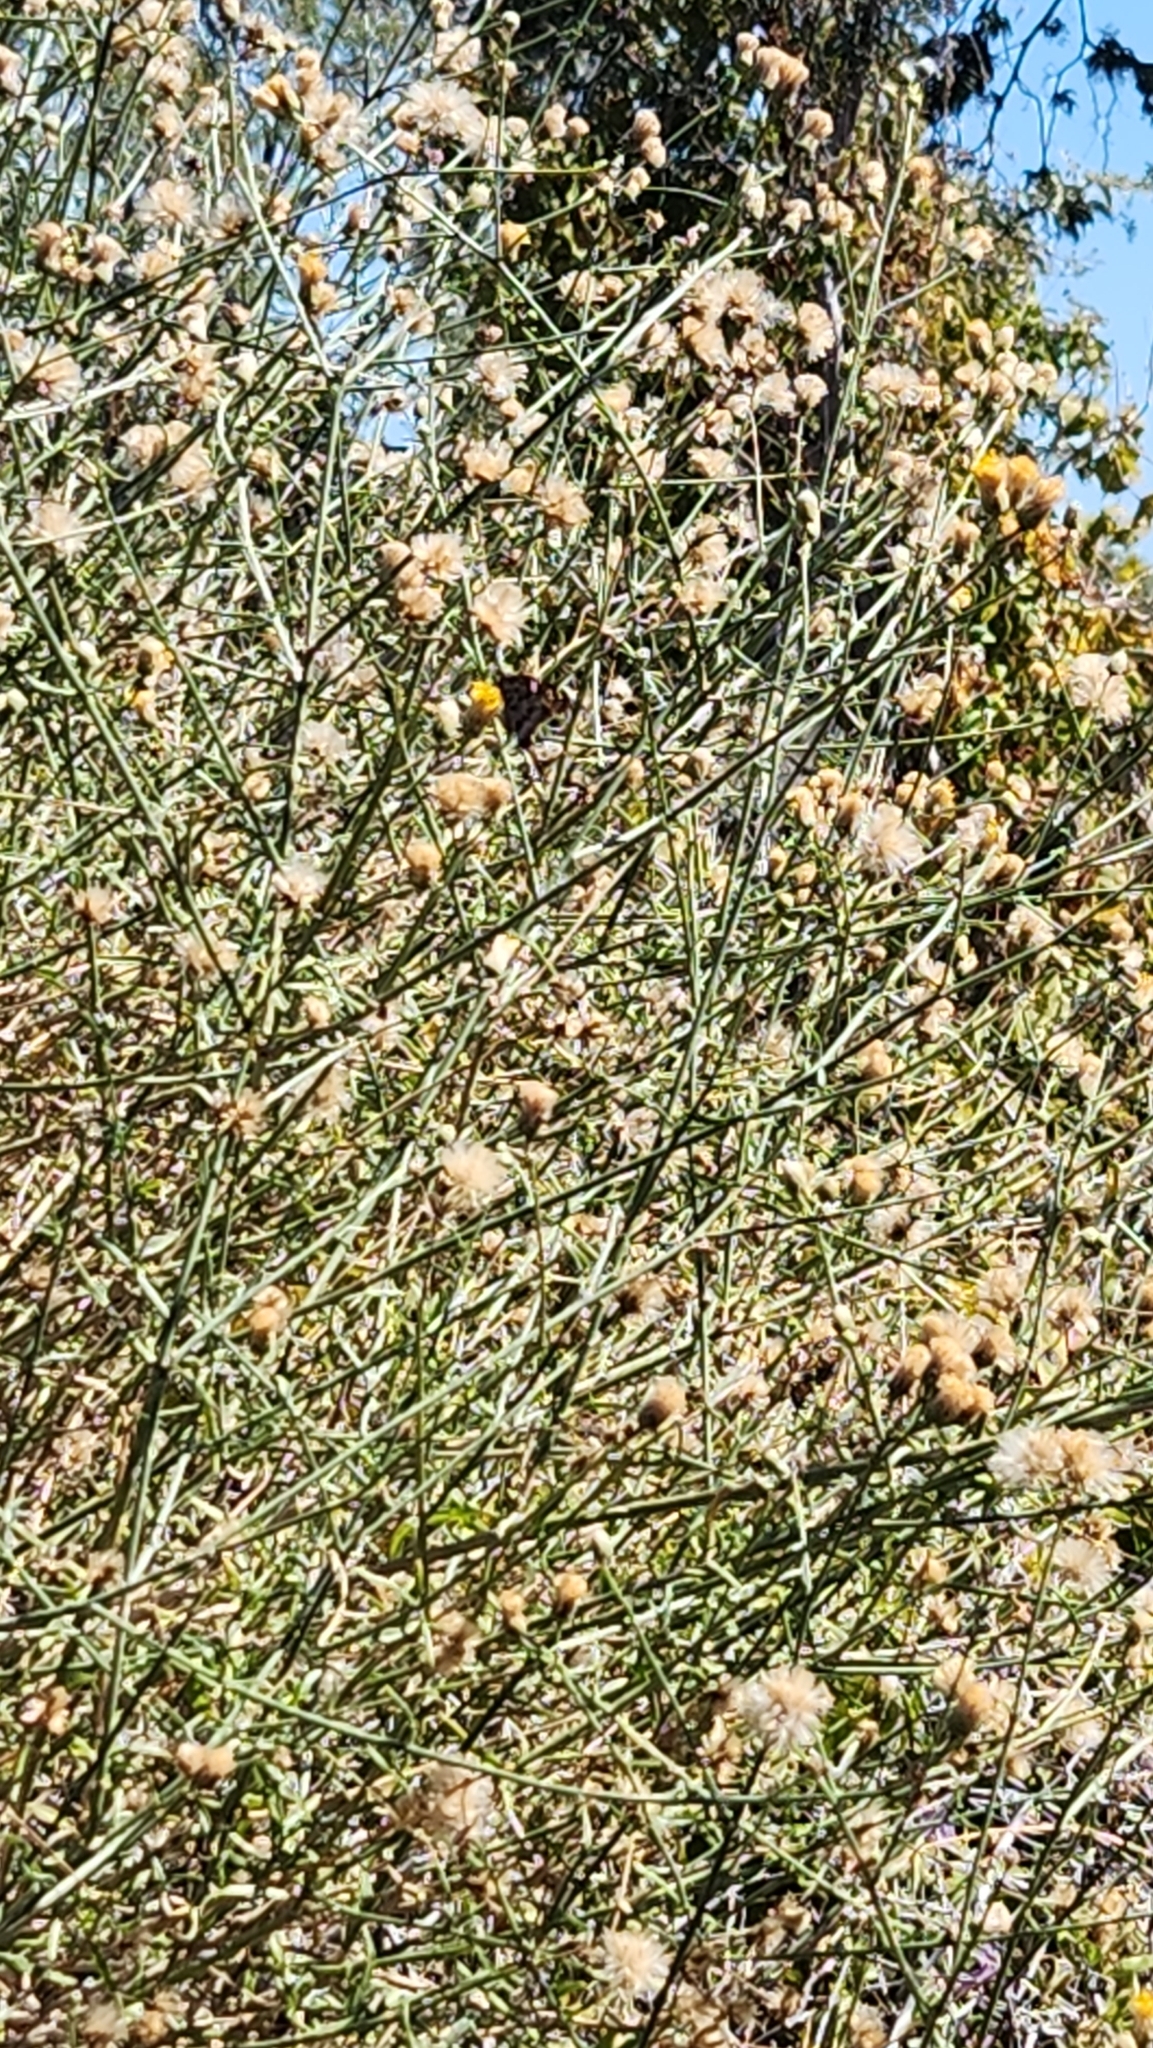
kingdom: Animalia
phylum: Arthropoda
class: Insecta
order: Lepidoptera
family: Hesperiidae
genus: Thorybes
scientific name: Thorybes
